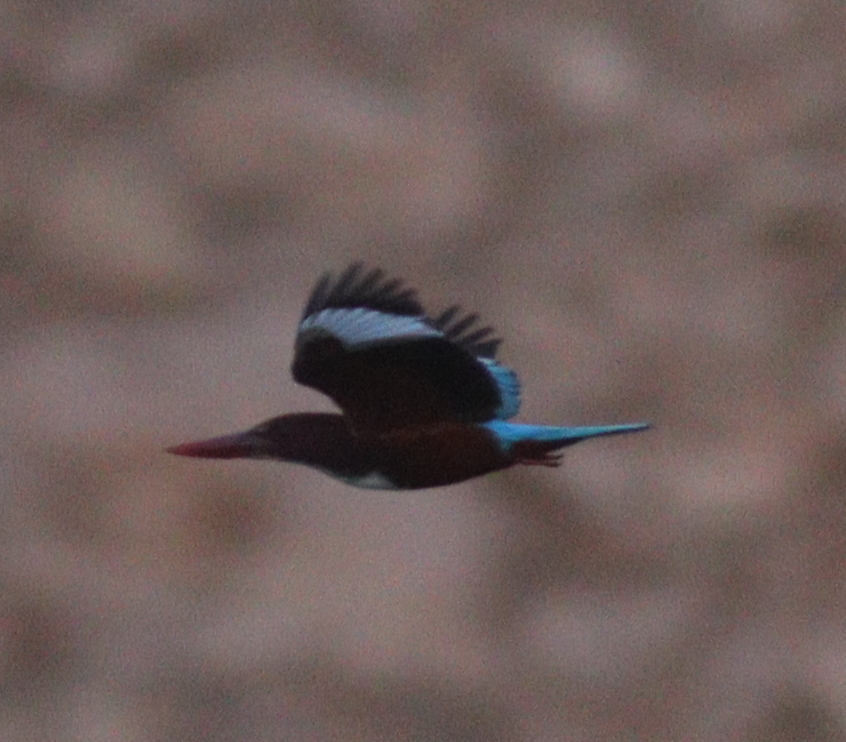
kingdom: Animalia
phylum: Chordata
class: Aves
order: Coraciiformes
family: Alcedinidae
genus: Halcyon
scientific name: Halcyon smyrnensis
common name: White-throated kingfisher
